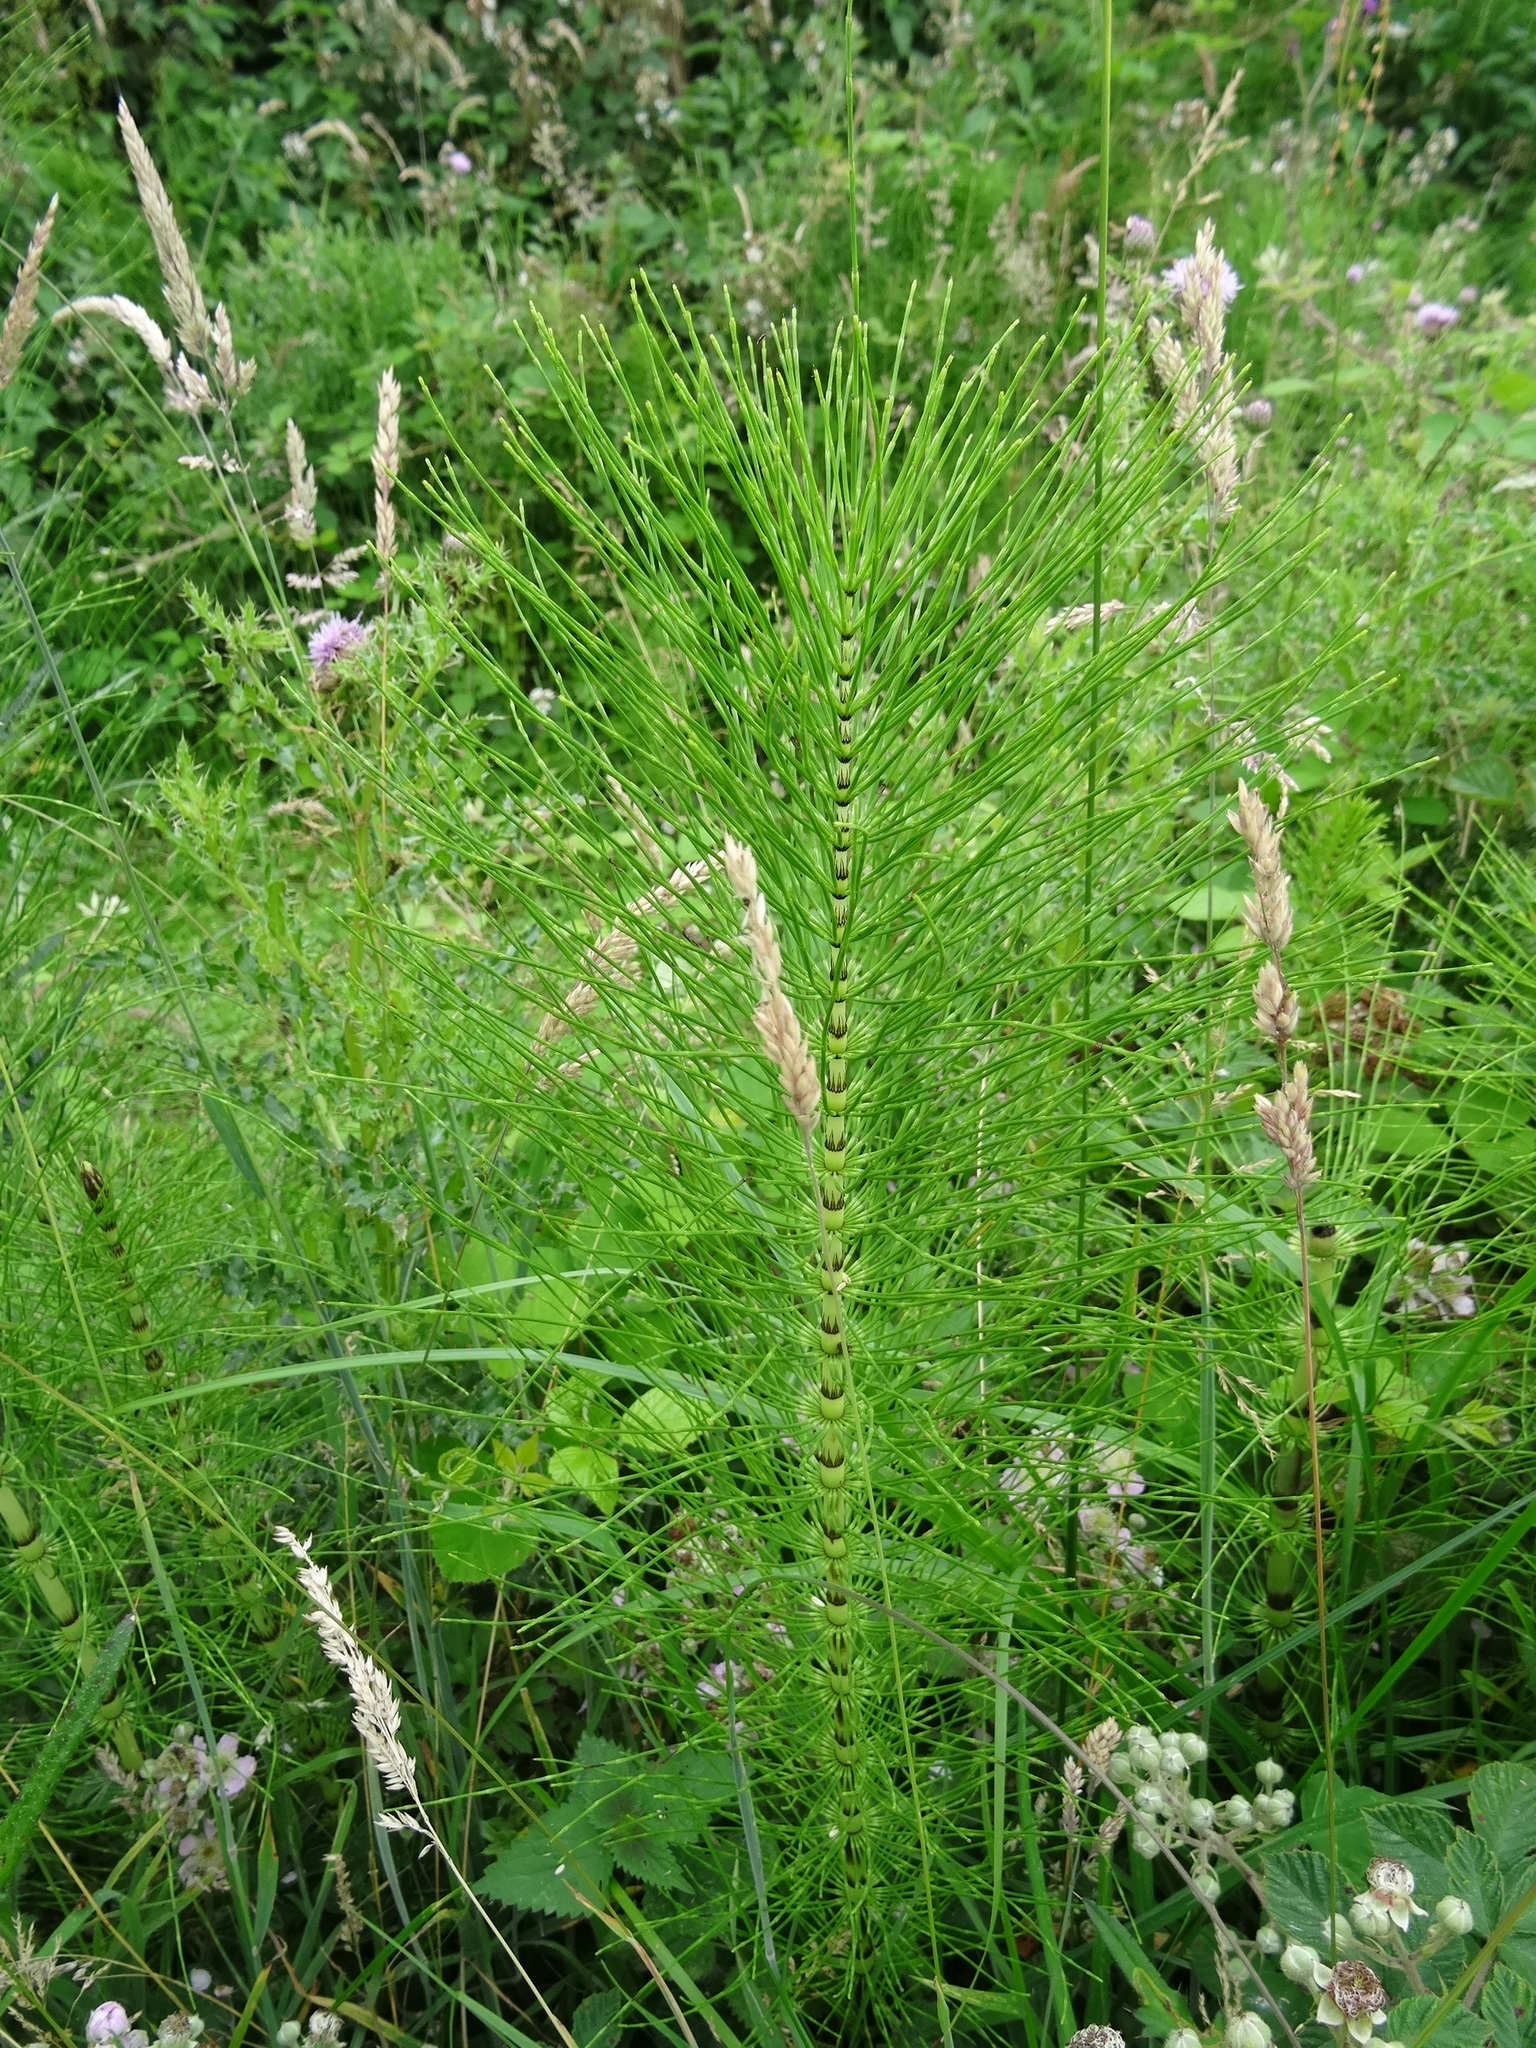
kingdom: Plantae
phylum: Tracheophyta
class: Polypodiopsida
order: Equisetales
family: Equisetaceae
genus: Equisetum
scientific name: Equisetum telmateia
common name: Great horsetail
